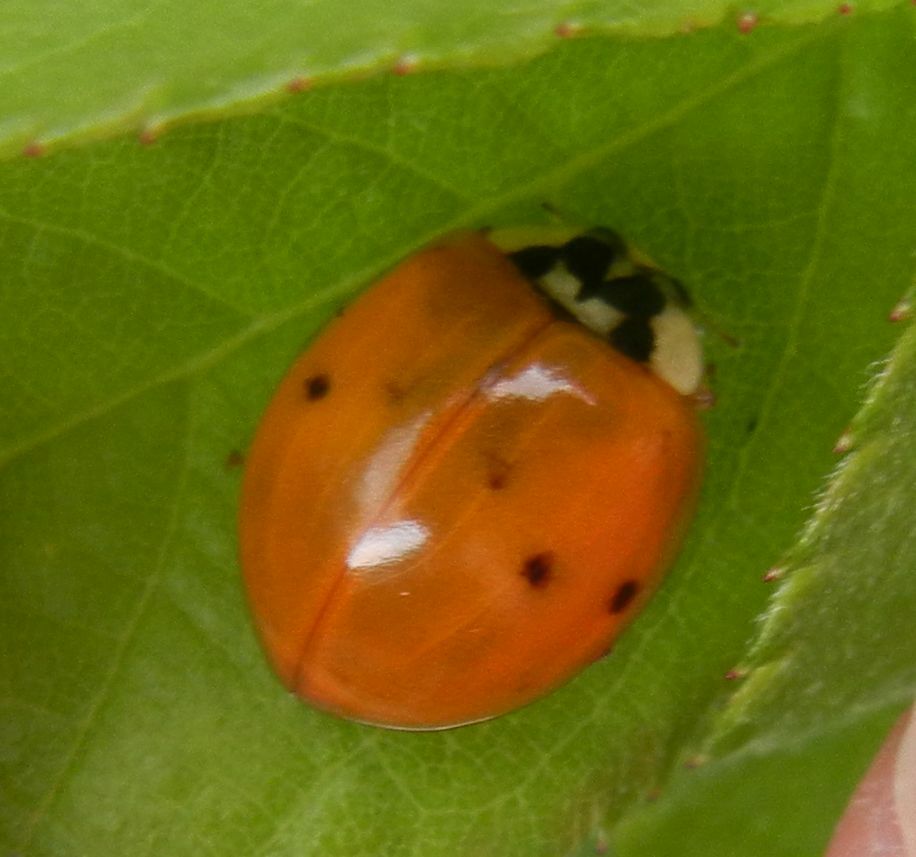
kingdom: Animalia
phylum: Arthropoda
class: Insecta
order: Coleoptera
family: Coccinellidae
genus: Harmonia
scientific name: Harmonia axyridis
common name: Harlequin ladybird
